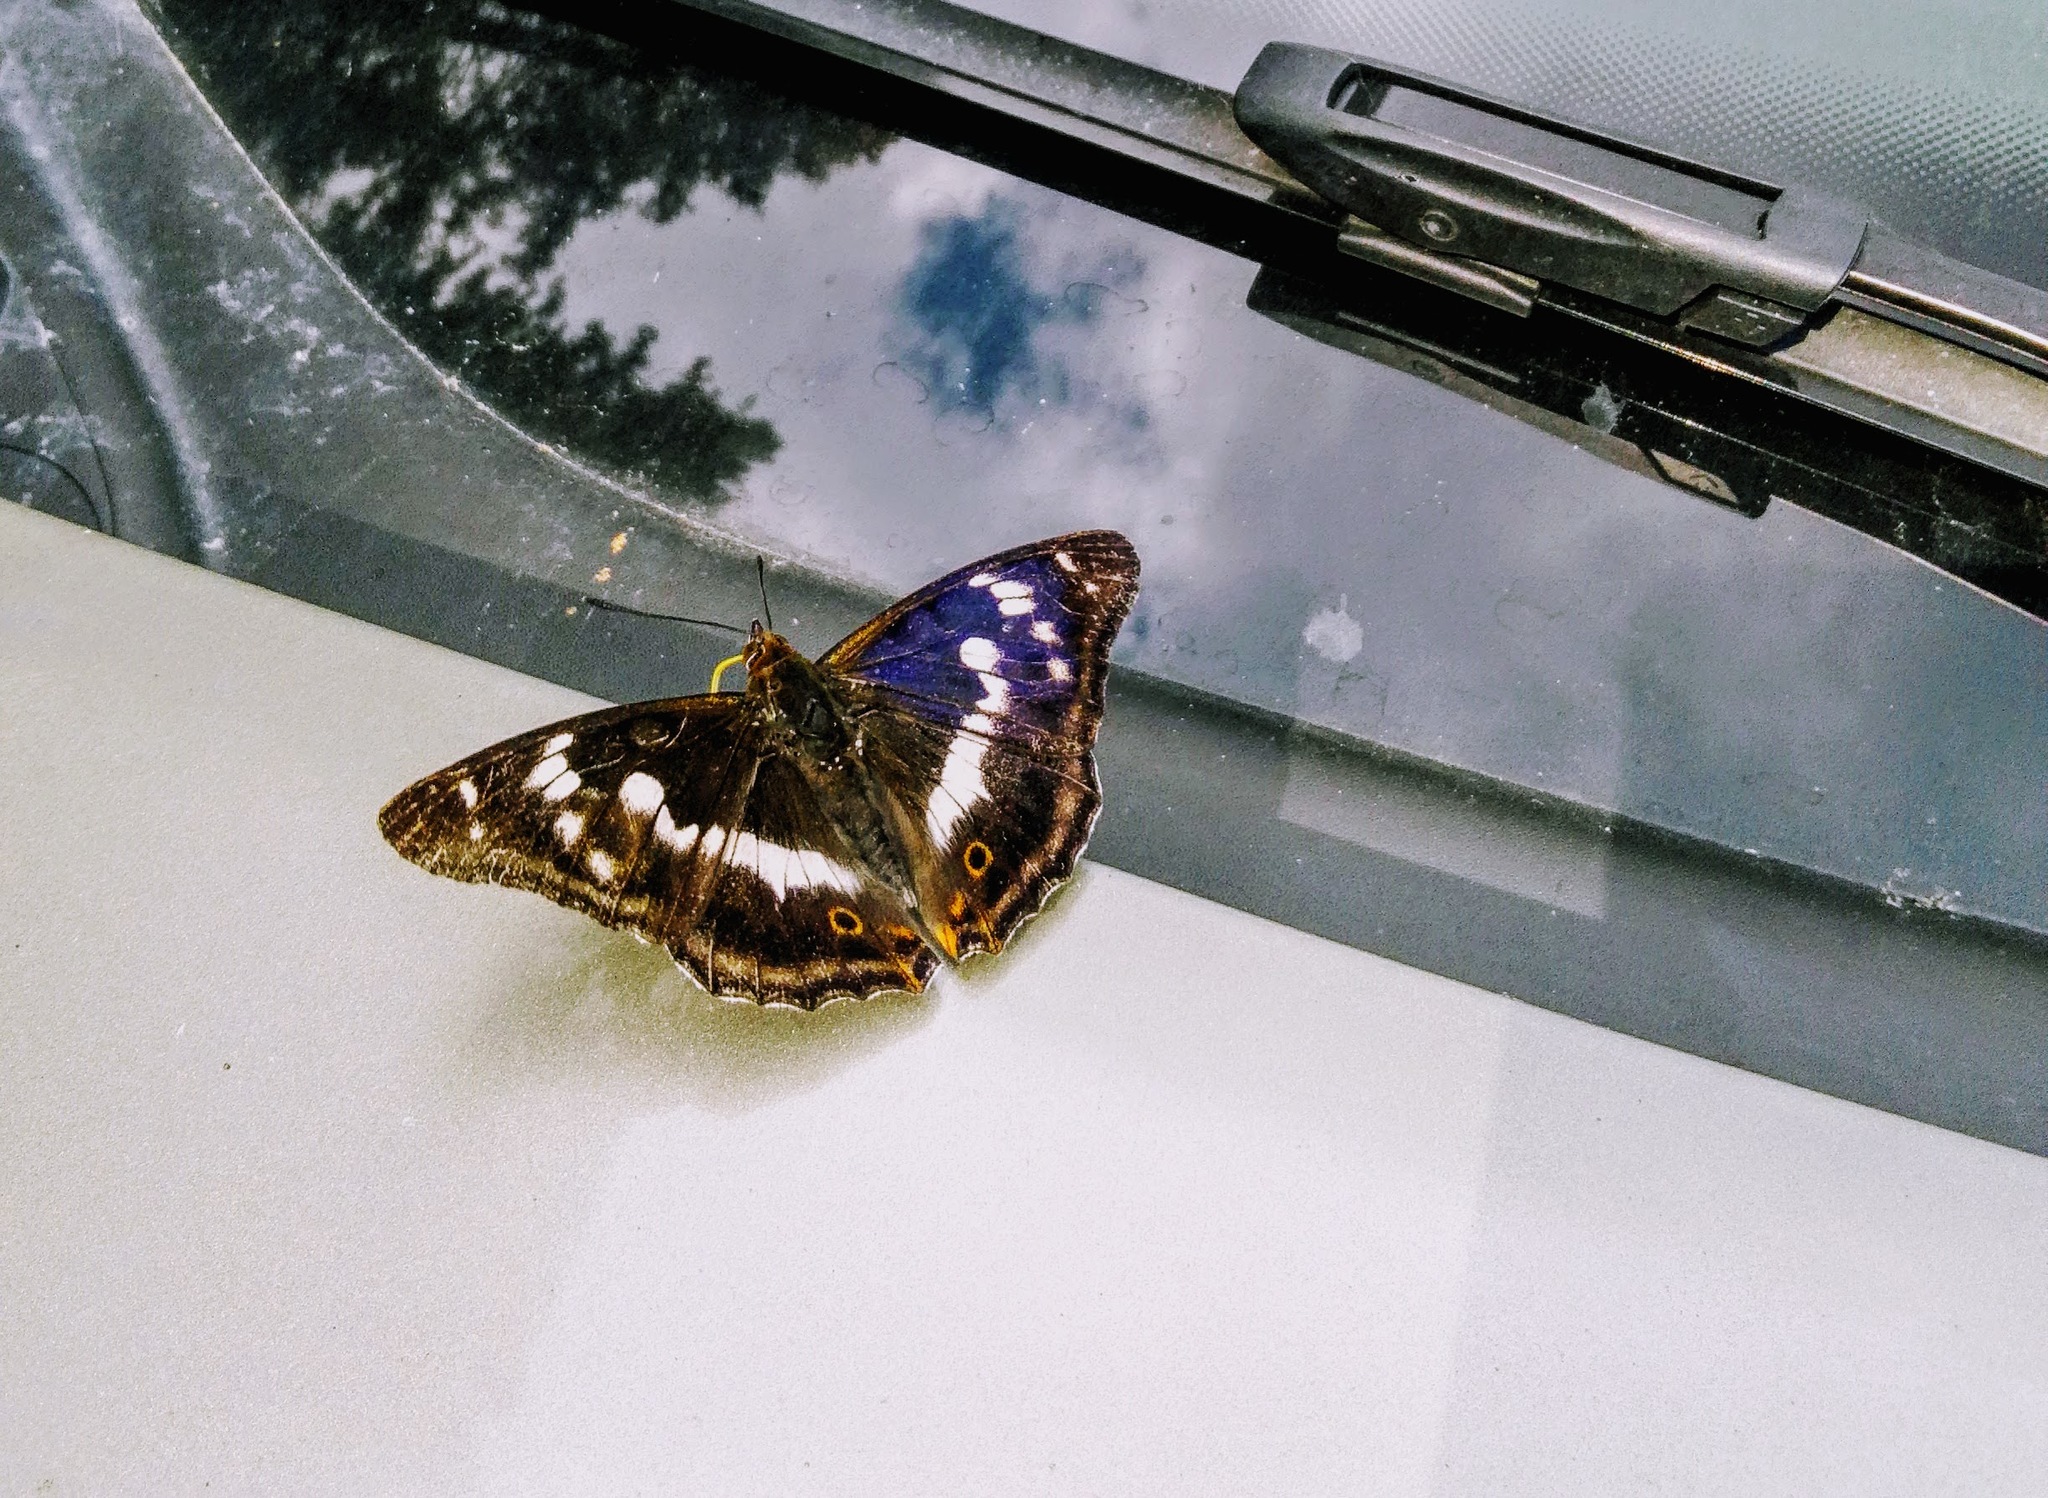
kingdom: Animalia
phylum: Arthropoda
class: Insecta
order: Lepidoptera
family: Nymphalidae
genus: Apatura
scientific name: Apatura iris
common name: Purple emperor
